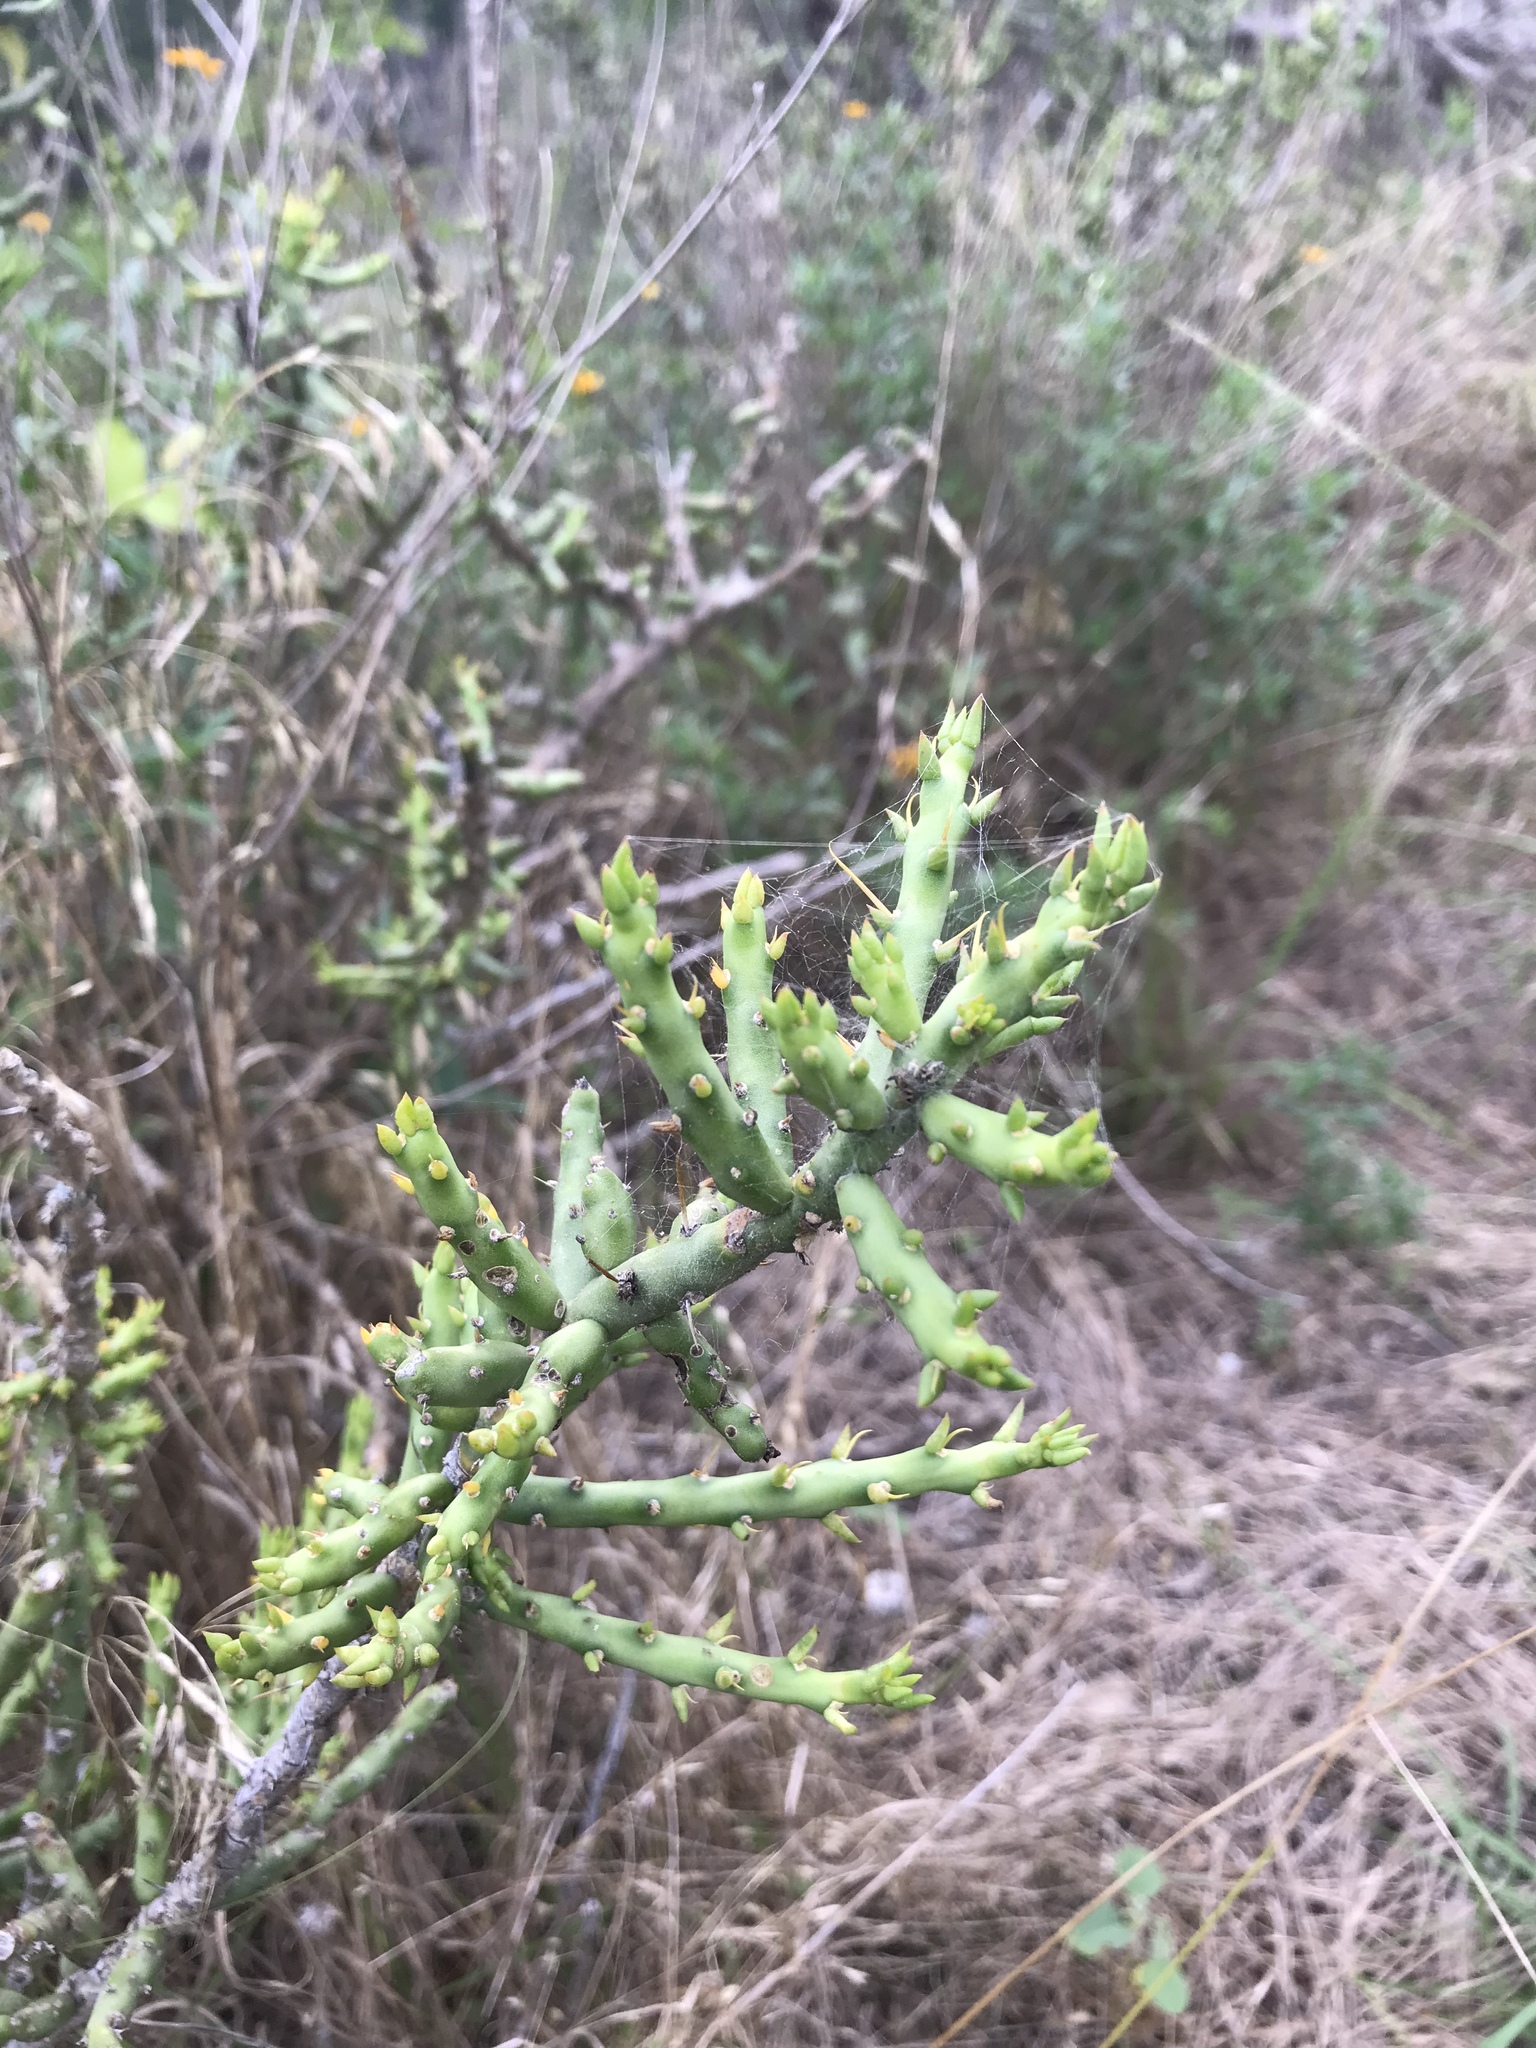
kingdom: Plantae
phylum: Tracheophyta
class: Magnoliopsida
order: Caryophyllales
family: Cactaceae
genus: Cylindropuntia
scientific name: Cylindropuntia leptocaulis
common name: Christmas cactus
